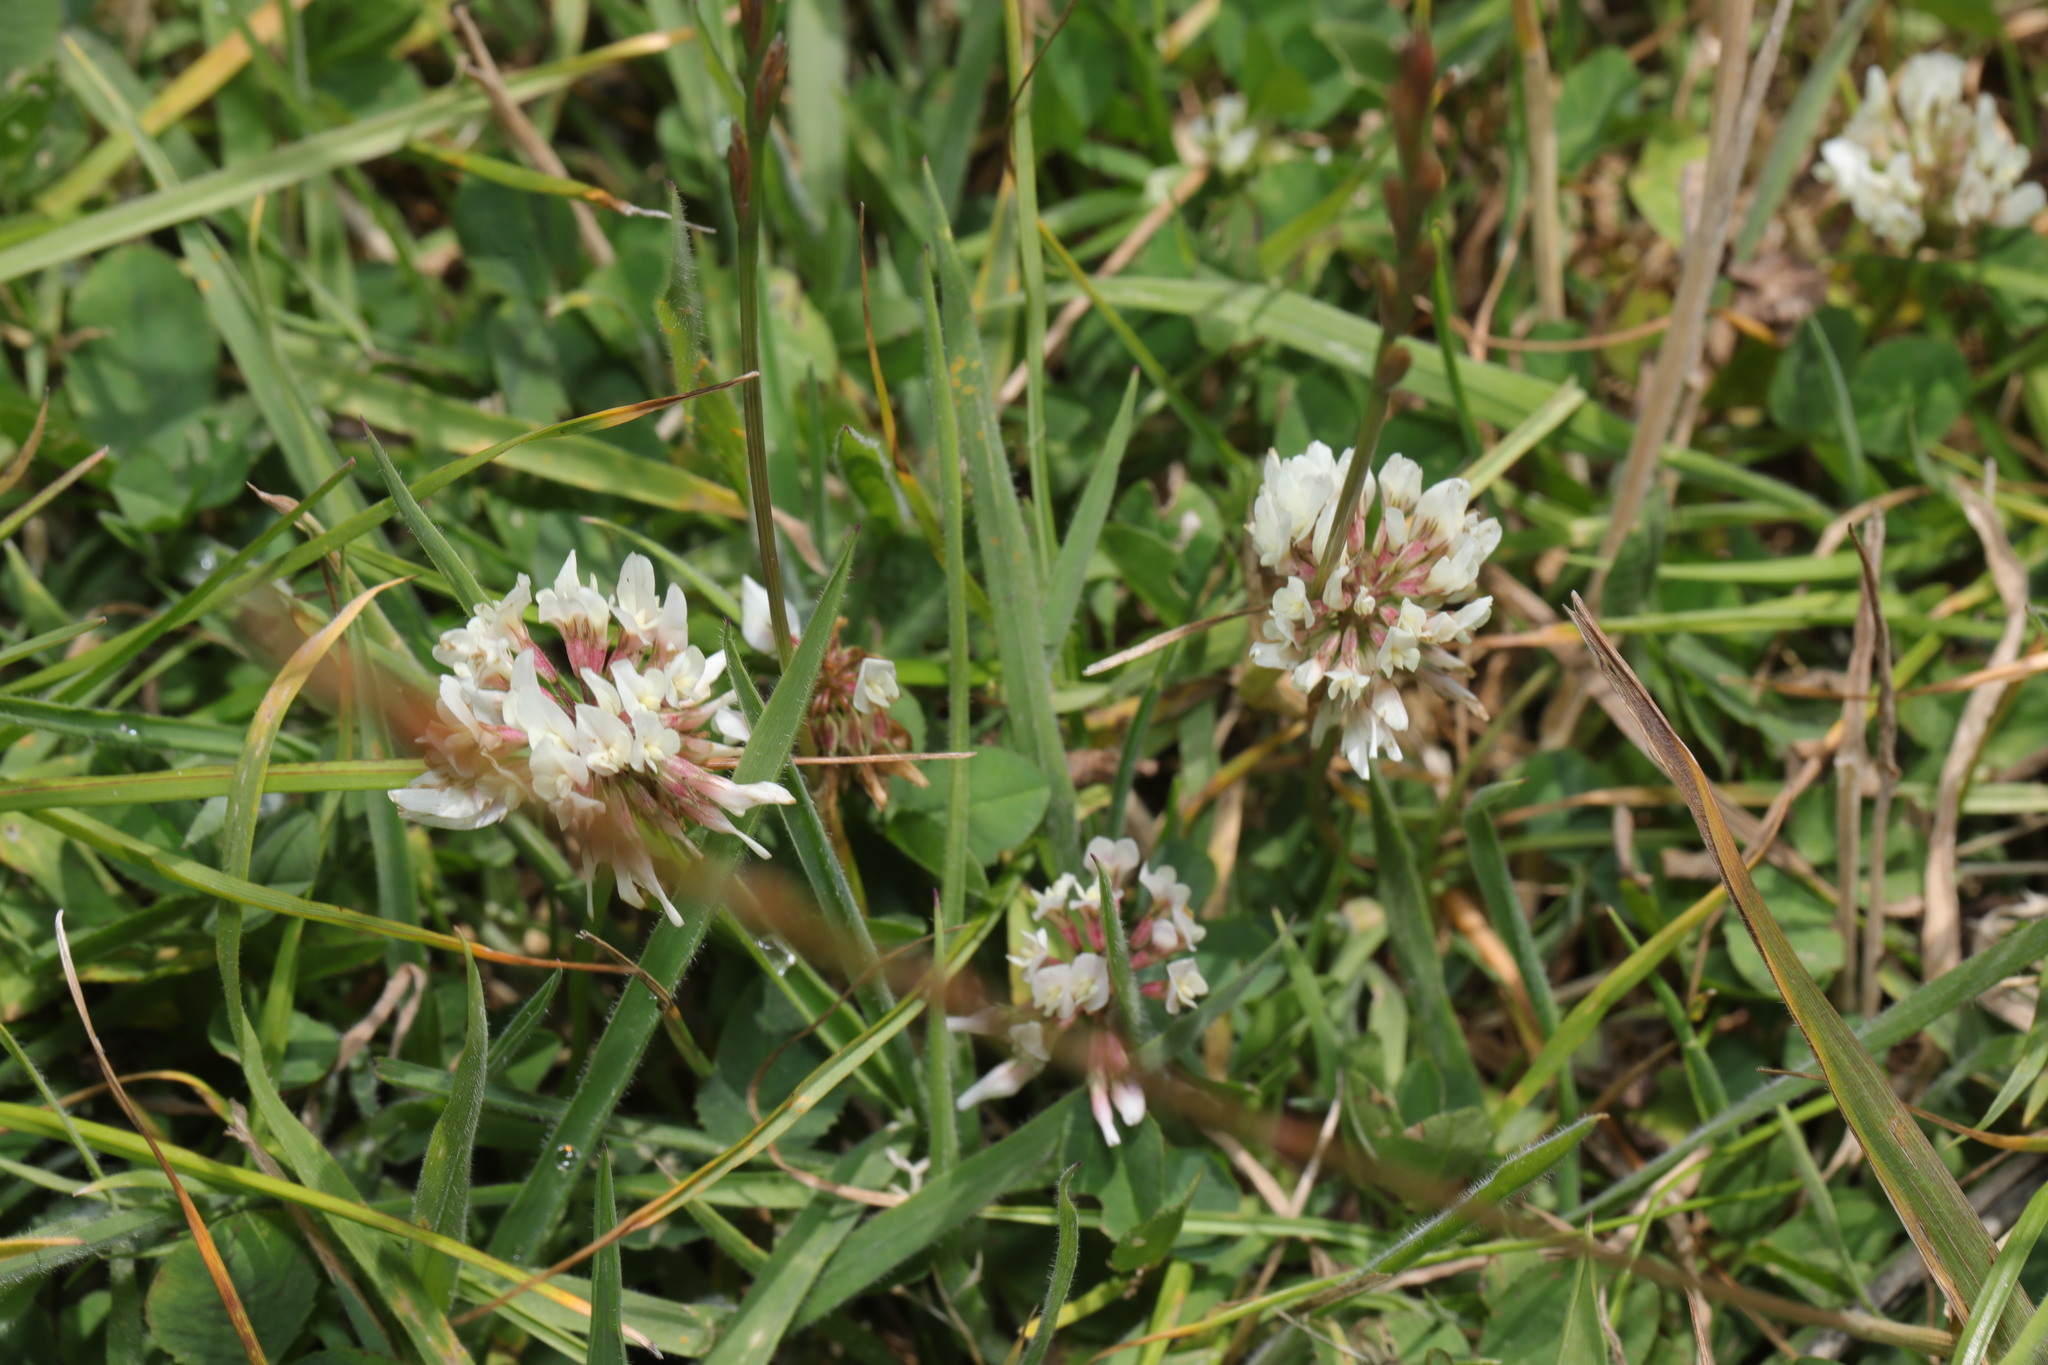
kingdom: Plantae
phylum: Tracheophyta
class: Magnoliopsida
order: Fabales
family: Fabaceae
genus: Trifolium
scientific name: Trifolium repens
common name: White clover
